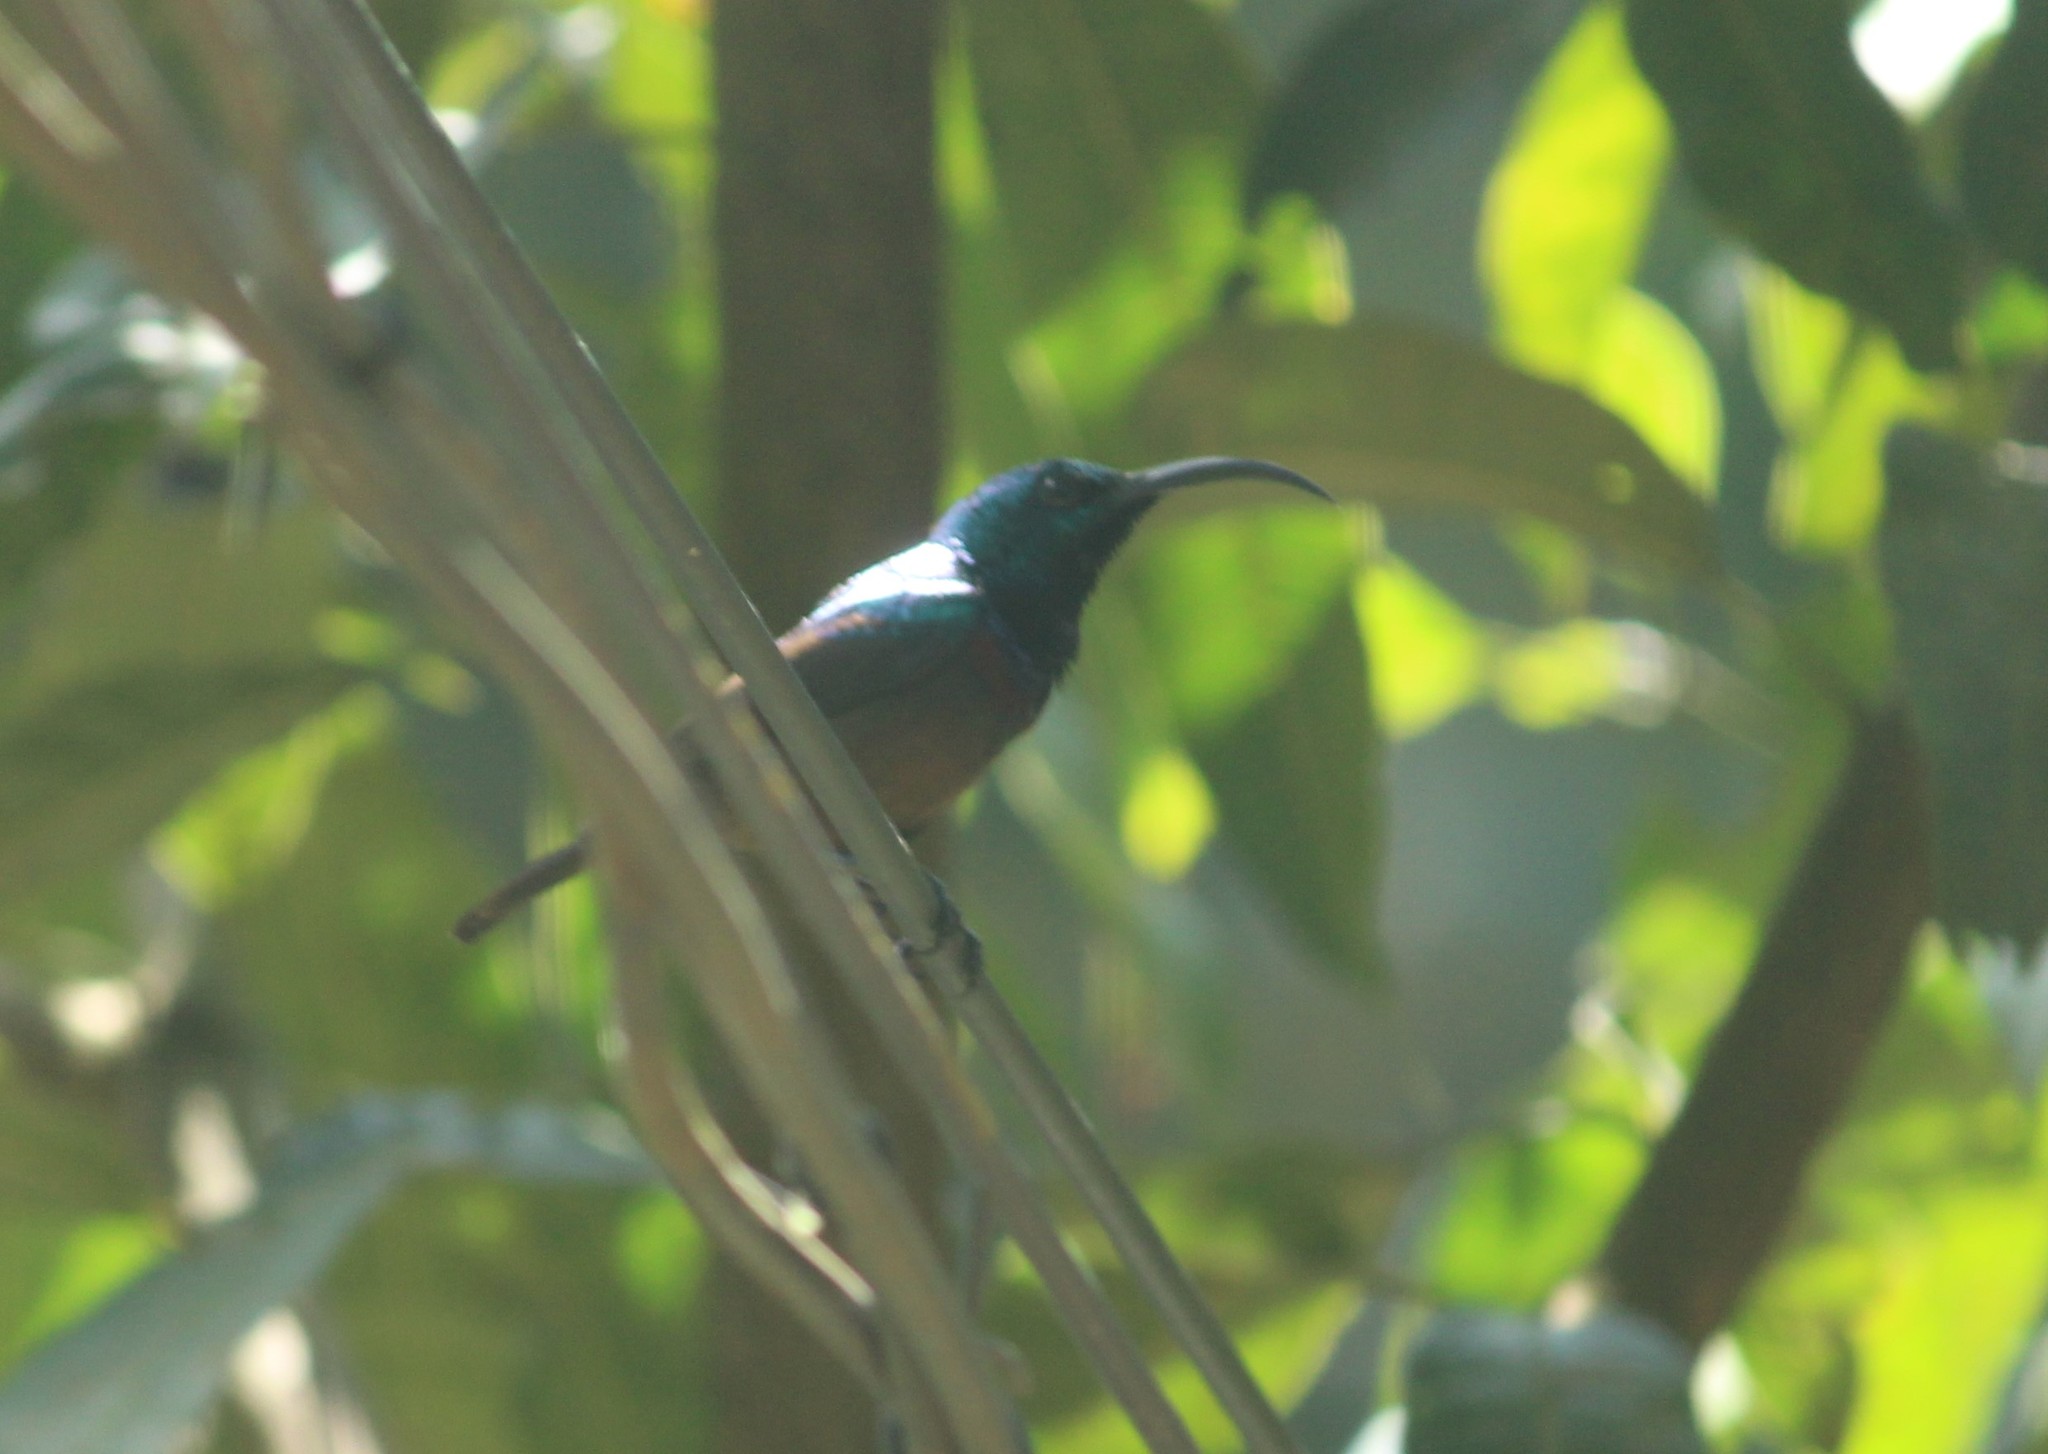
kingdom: Animalia
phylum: Chordata
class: Aves
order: Passeriformes
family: Nectariniidae
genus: Cinnyris
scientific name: Cinnyris lotenius
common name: Loten's sunbird
